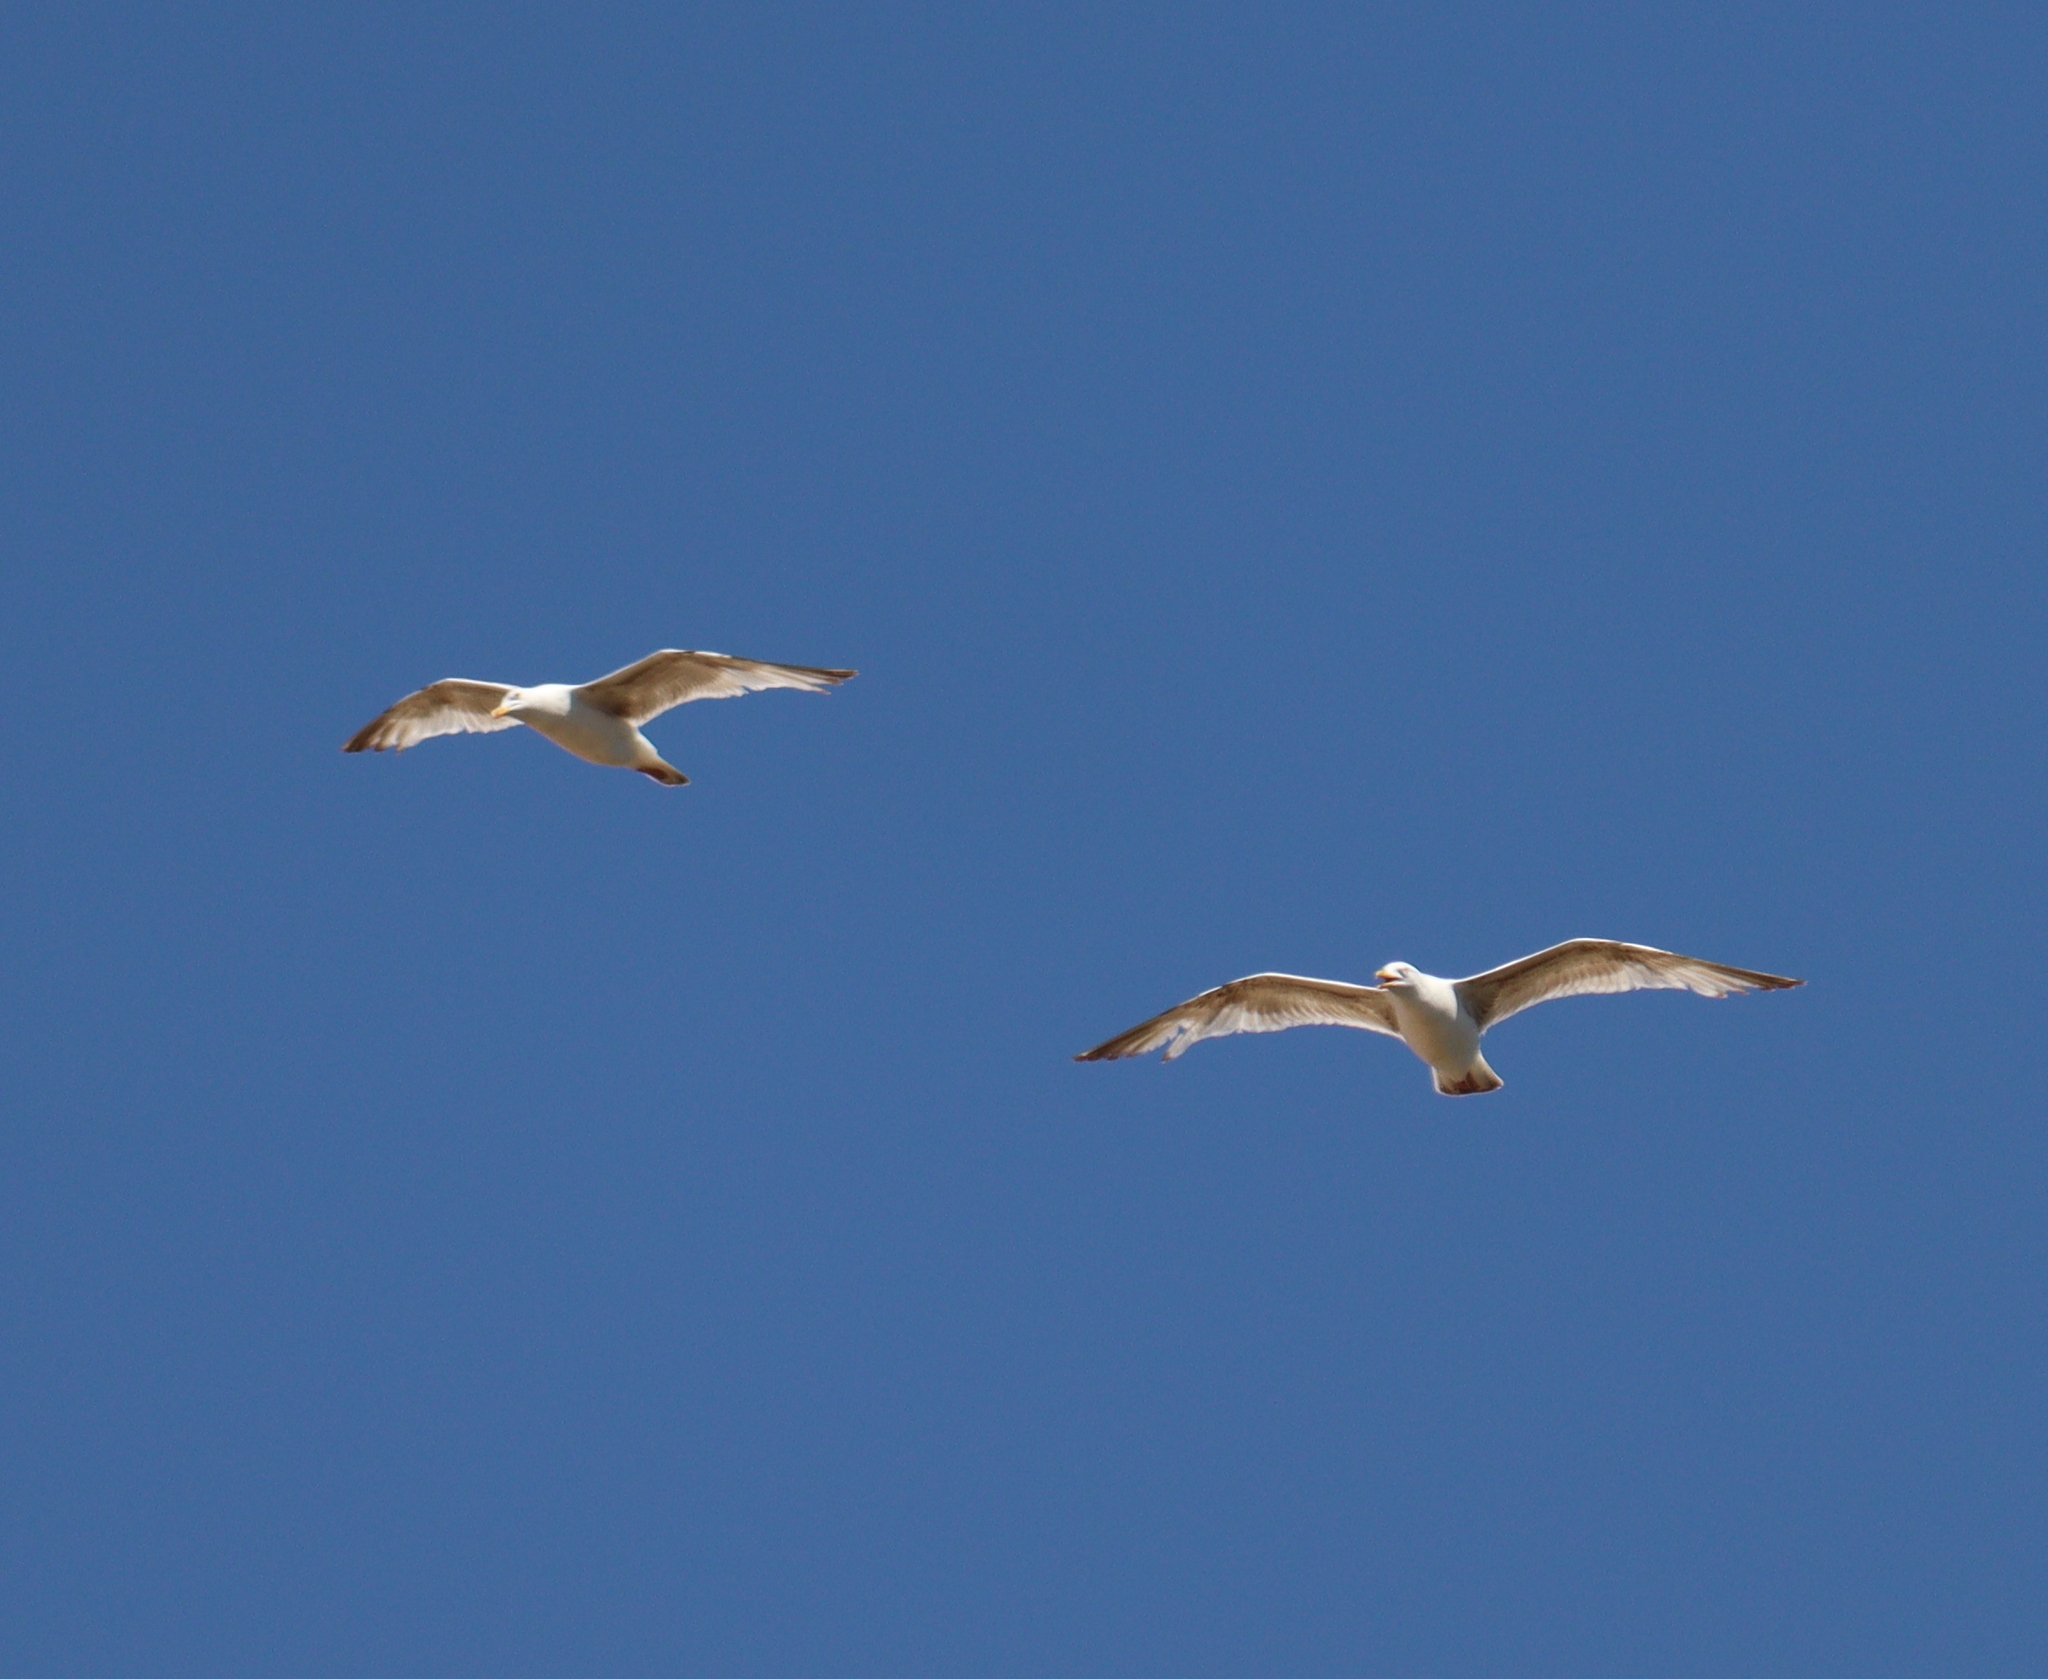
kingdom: Animalia
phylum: Chordata
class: Aves
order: Charadriiformes
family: Laridae
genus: Larus
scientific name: Larus argentatus
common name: Herring gull
